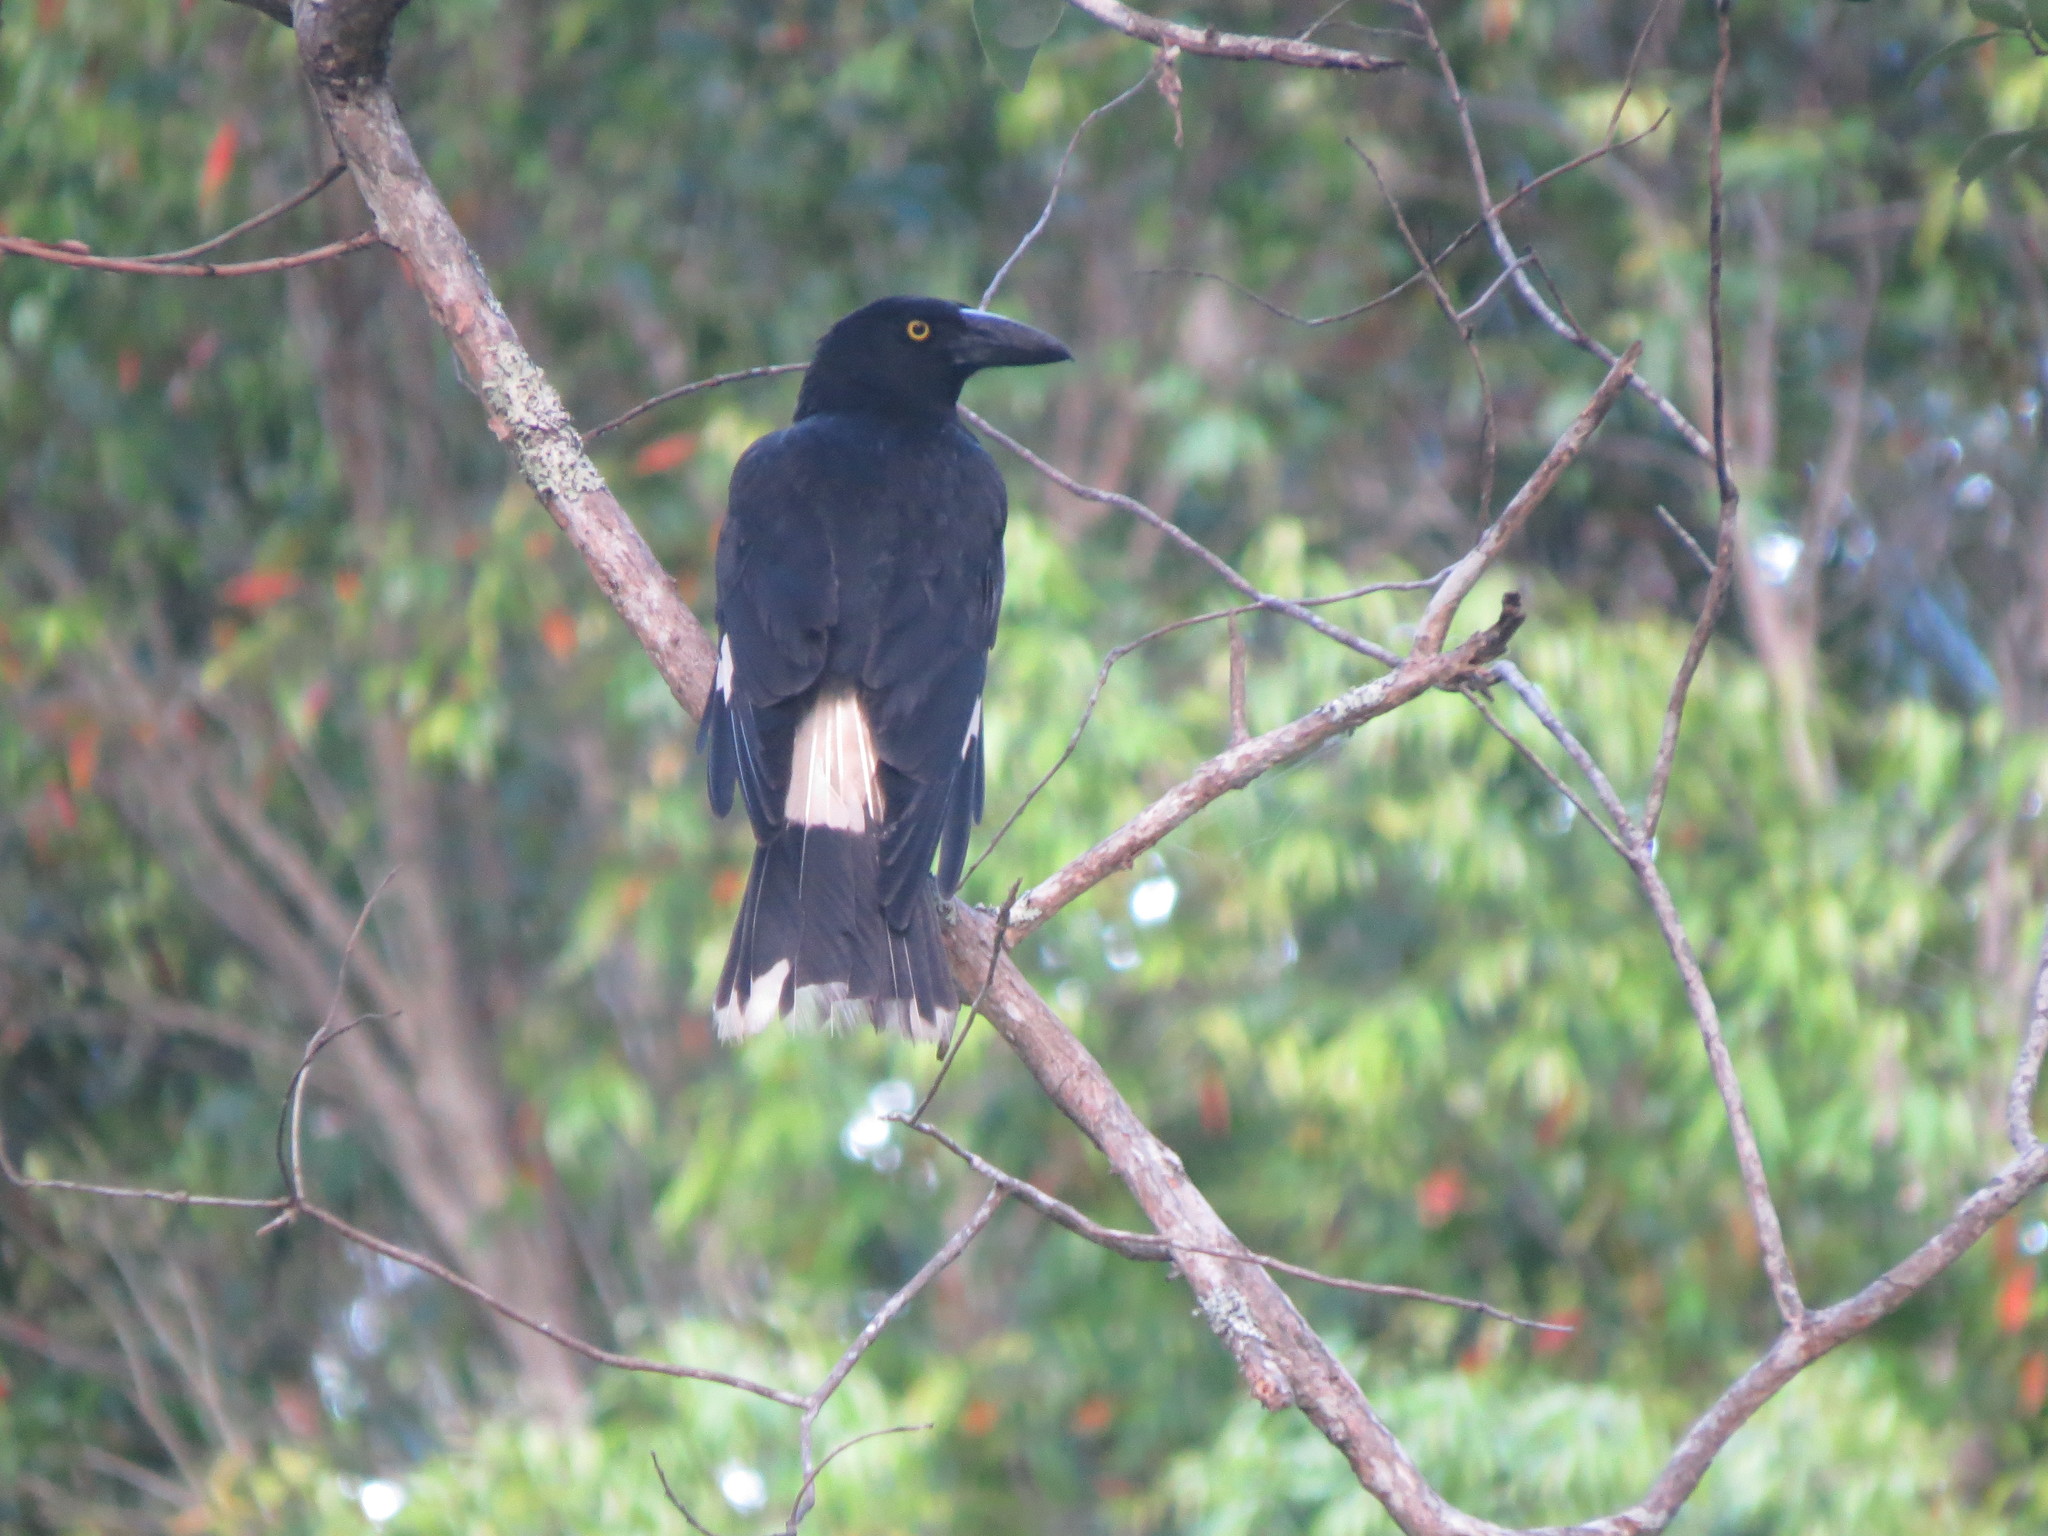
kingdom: Animalia
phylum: Chordata
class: Aves
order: Passeriformes
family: Cracticidae
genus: Strepera
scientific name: Strepera graculina
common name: Pied currawong
